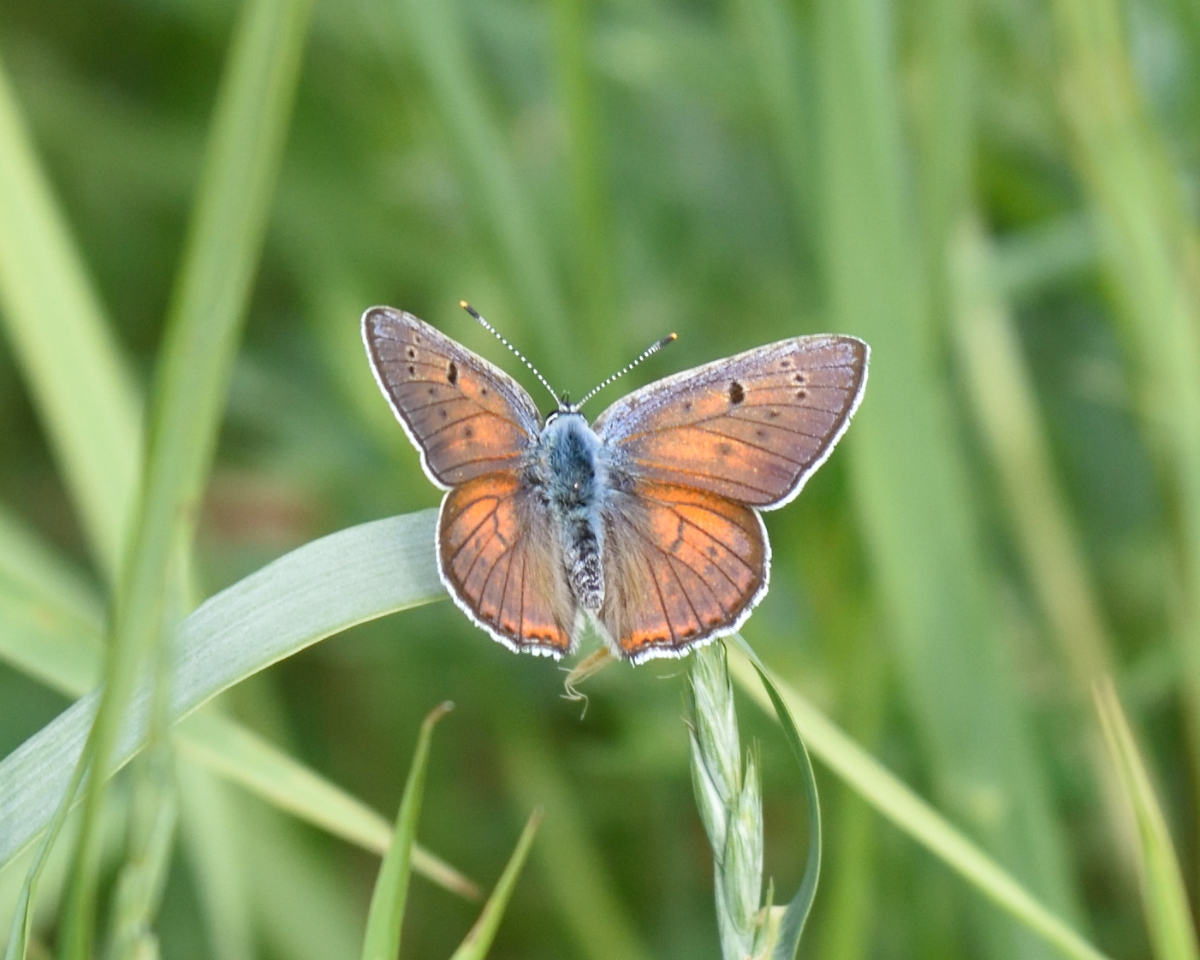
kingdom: Animalia
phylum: Arthropoda
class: Insecta
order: Lepidoptera
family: Lycaenidae
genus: Lycaena
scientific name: Lycaena alciphron
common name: Purple-shot copper
